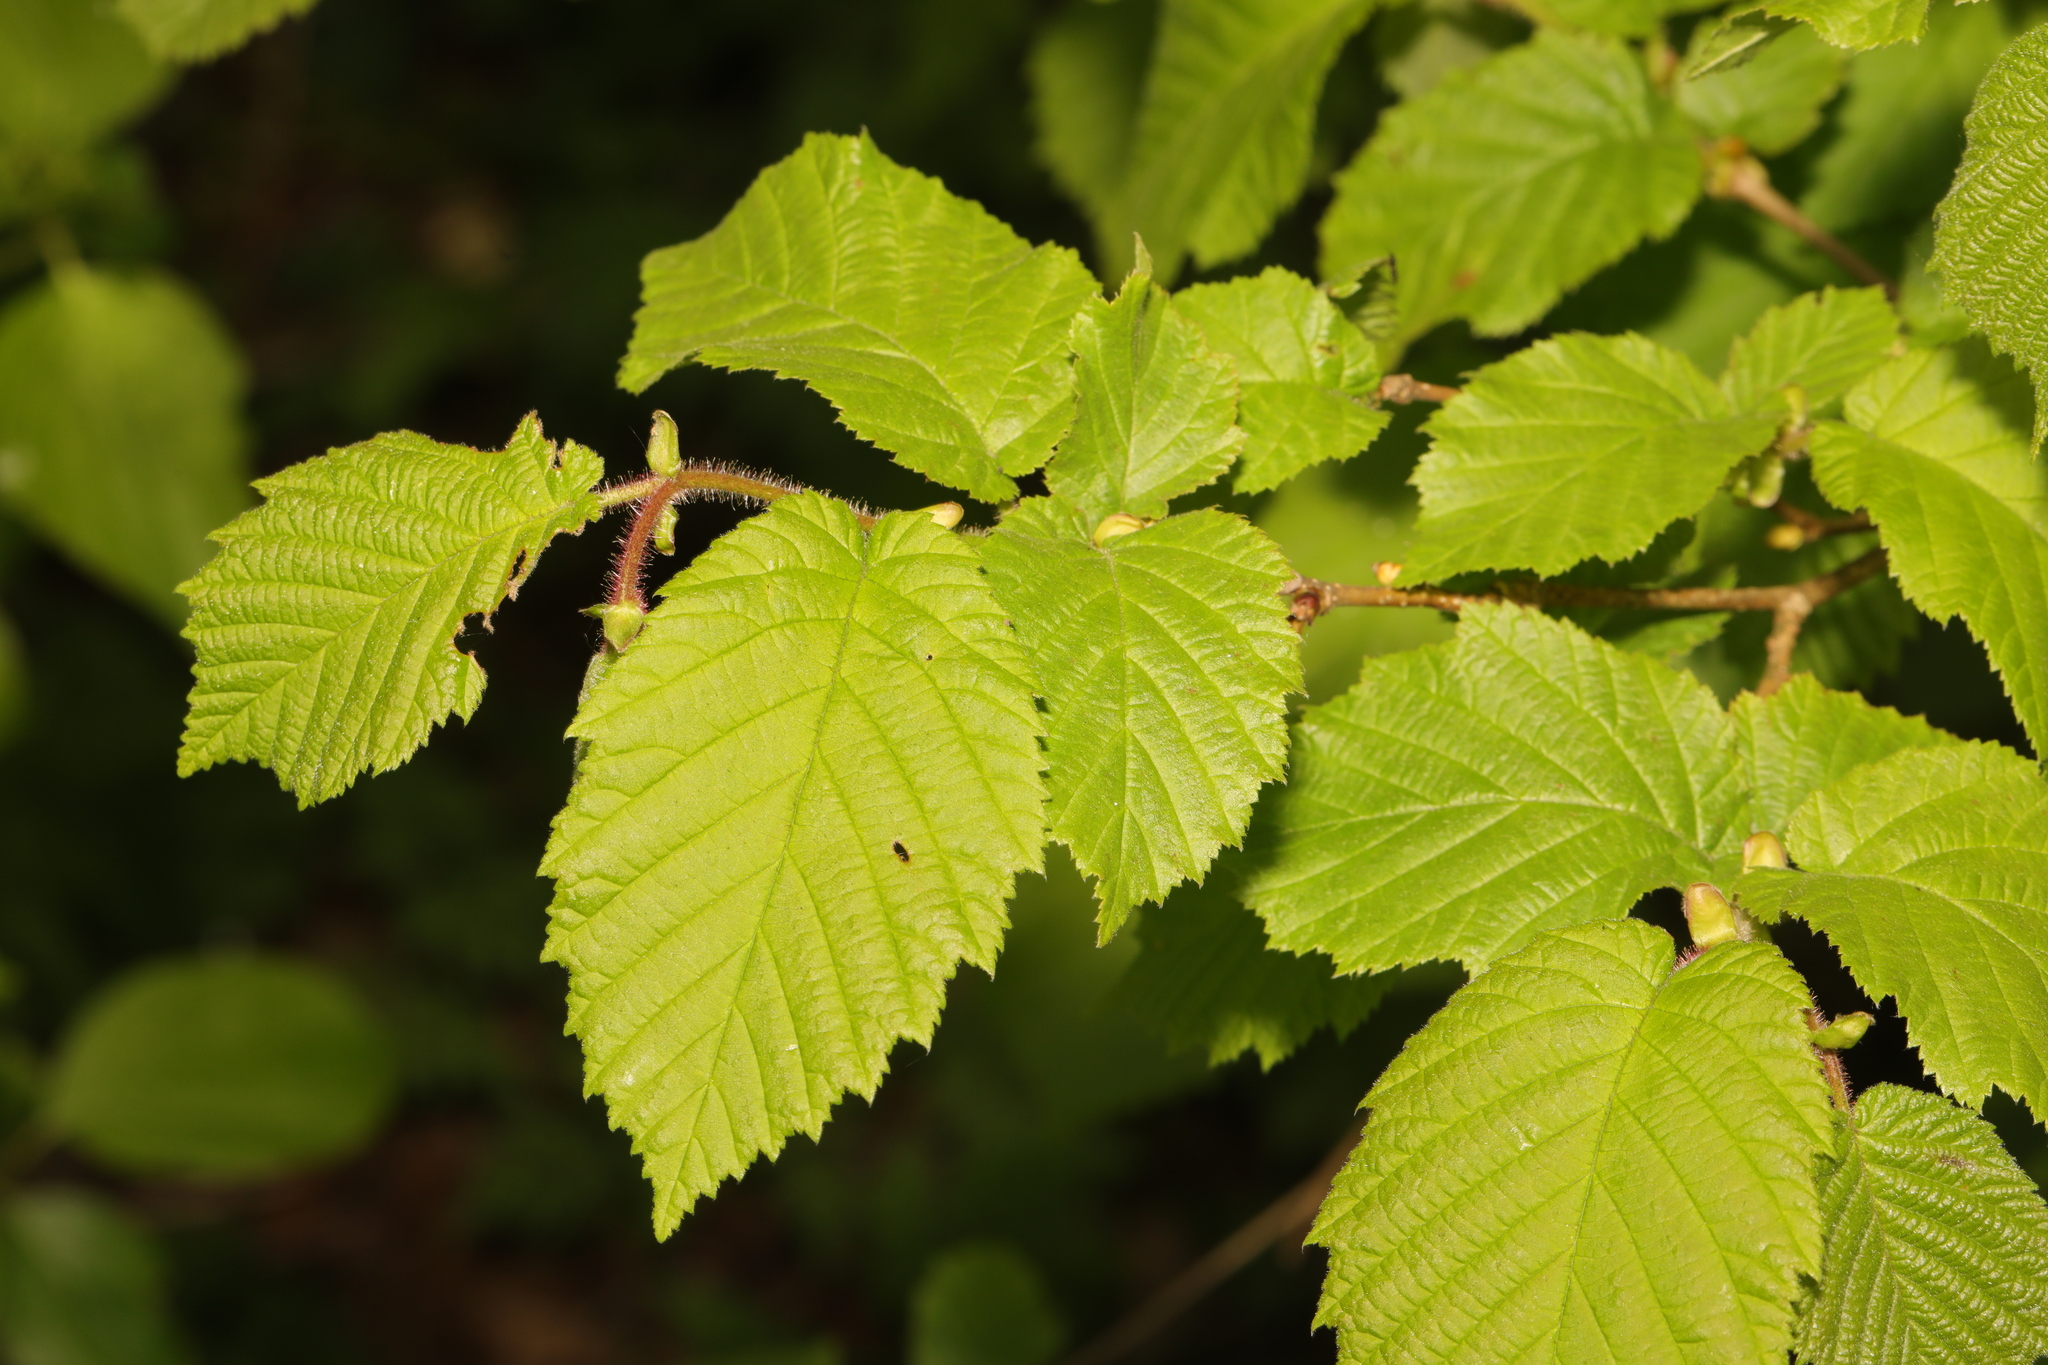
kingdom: Plantae
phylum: Tracheophyta
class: Magnoliopsida
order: Fagales
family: Betulaceae
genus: Corylus
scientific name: Corylus avellana
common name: European hazel
